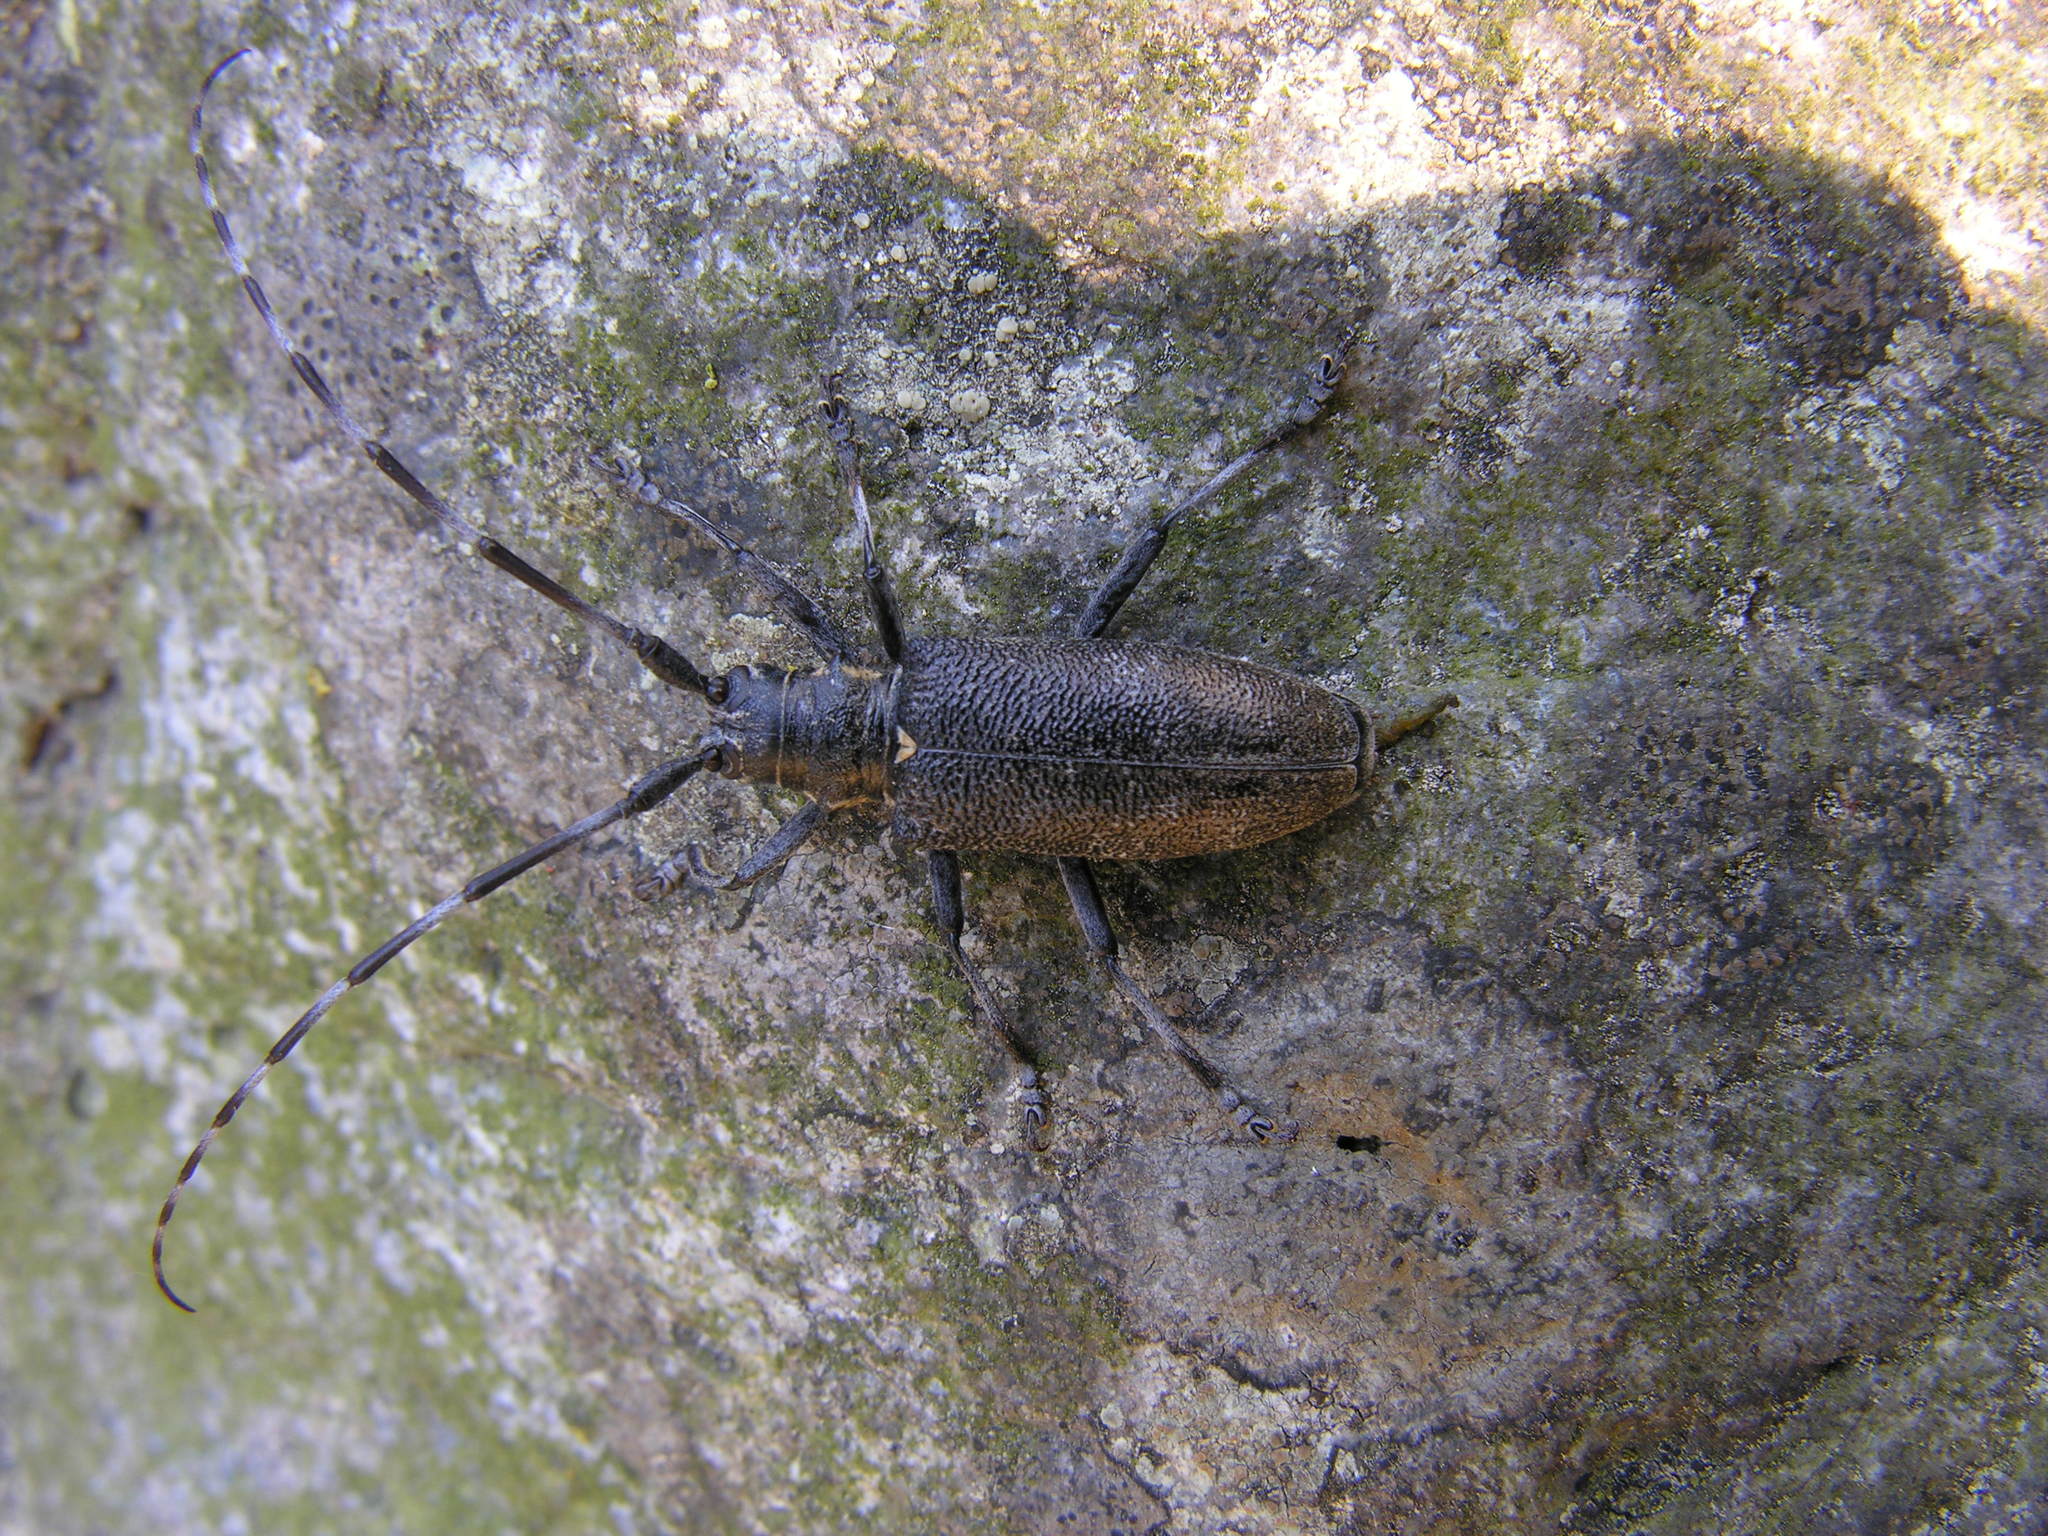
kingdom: Animalia
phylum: Arthropoda
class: Insecta
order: Coleoptera
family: Cerambycidae
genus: Monochamus
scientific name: Monochamus sutor
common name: Pine sawyer
